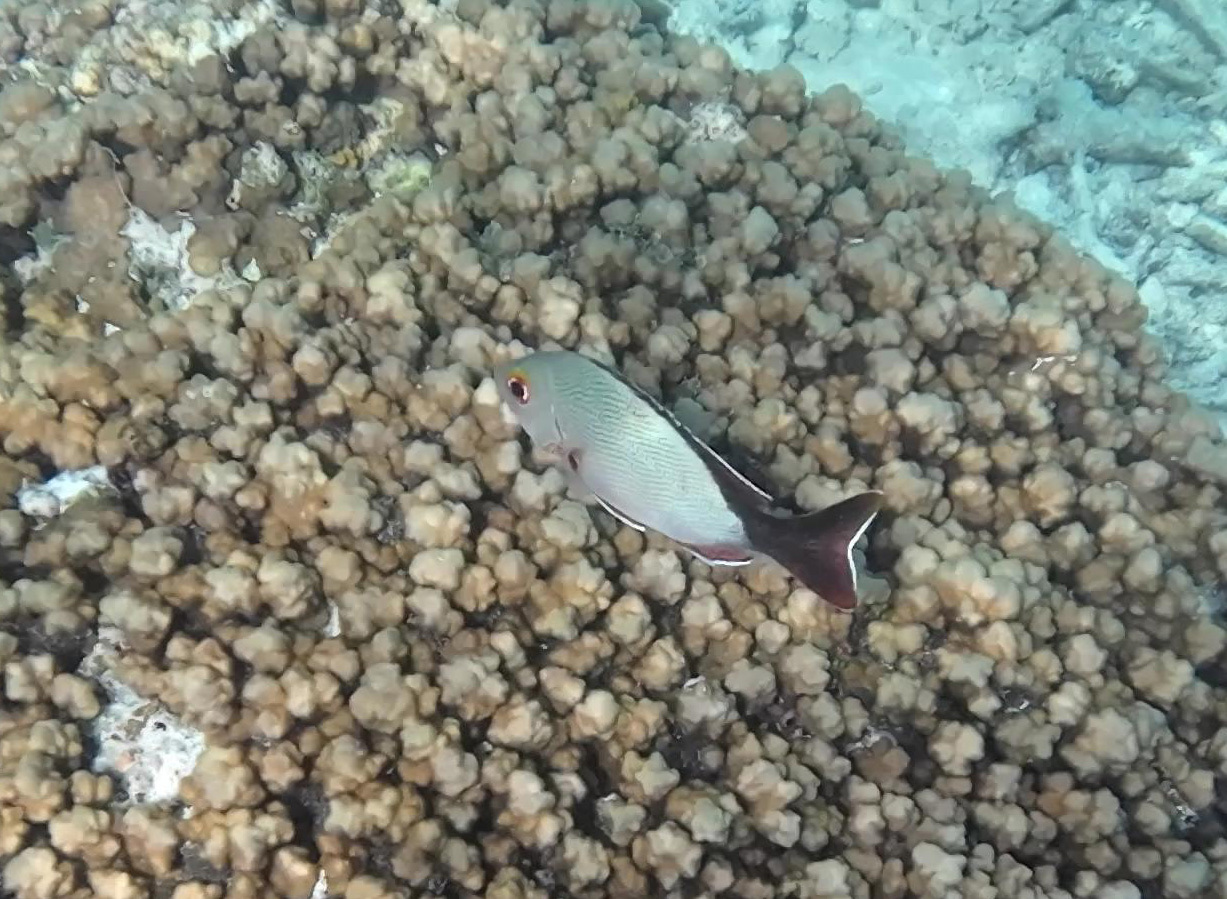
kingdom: Animalia
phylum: Chordata
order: Perciformes
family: Lutjanidae
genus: Lutjanus
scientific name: Lutjanus gibbus
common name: Humpback snapper
